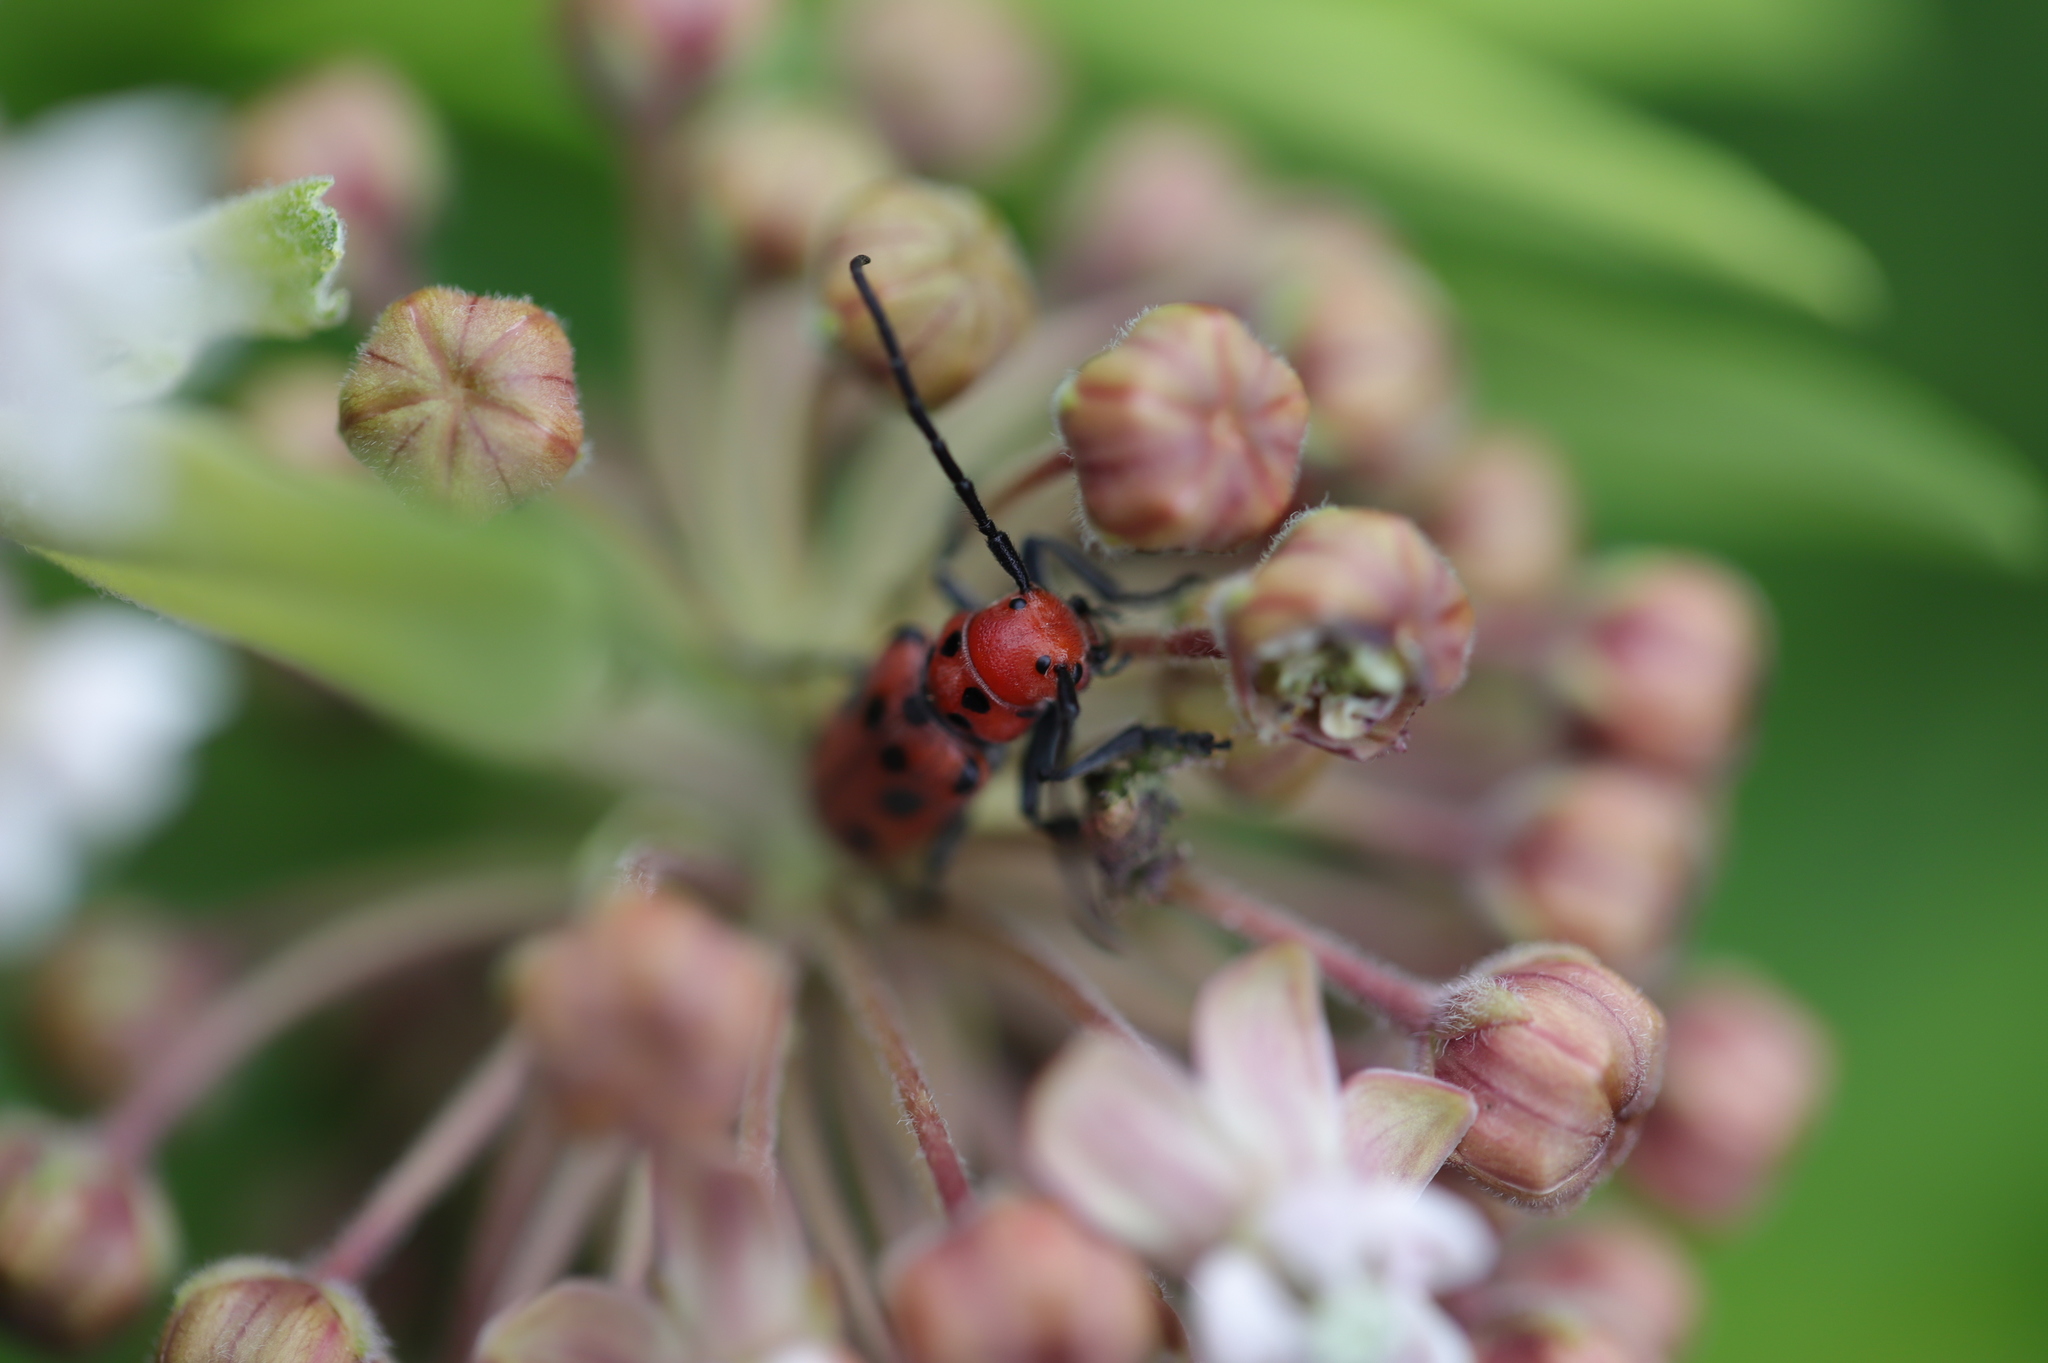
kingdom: Animalia
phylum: Arthropoda
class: Insecta
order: Coleoptera
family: Cerambycidae
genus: Tetraopes
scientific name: Tetraopes tetrophthalmus
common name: Red milkweed beetle
